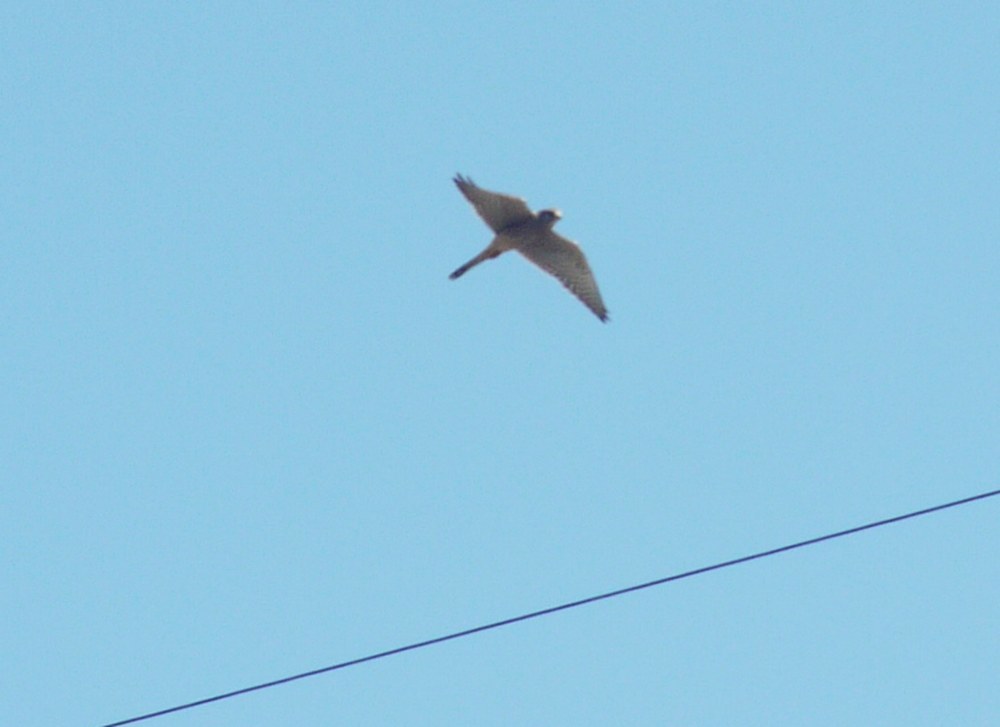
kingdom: Animalia
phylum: Chordata
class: Aves
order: Falconiformes
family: Falconidae
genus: Falco
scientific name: Falco tinnunculus
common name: Common kestrel
